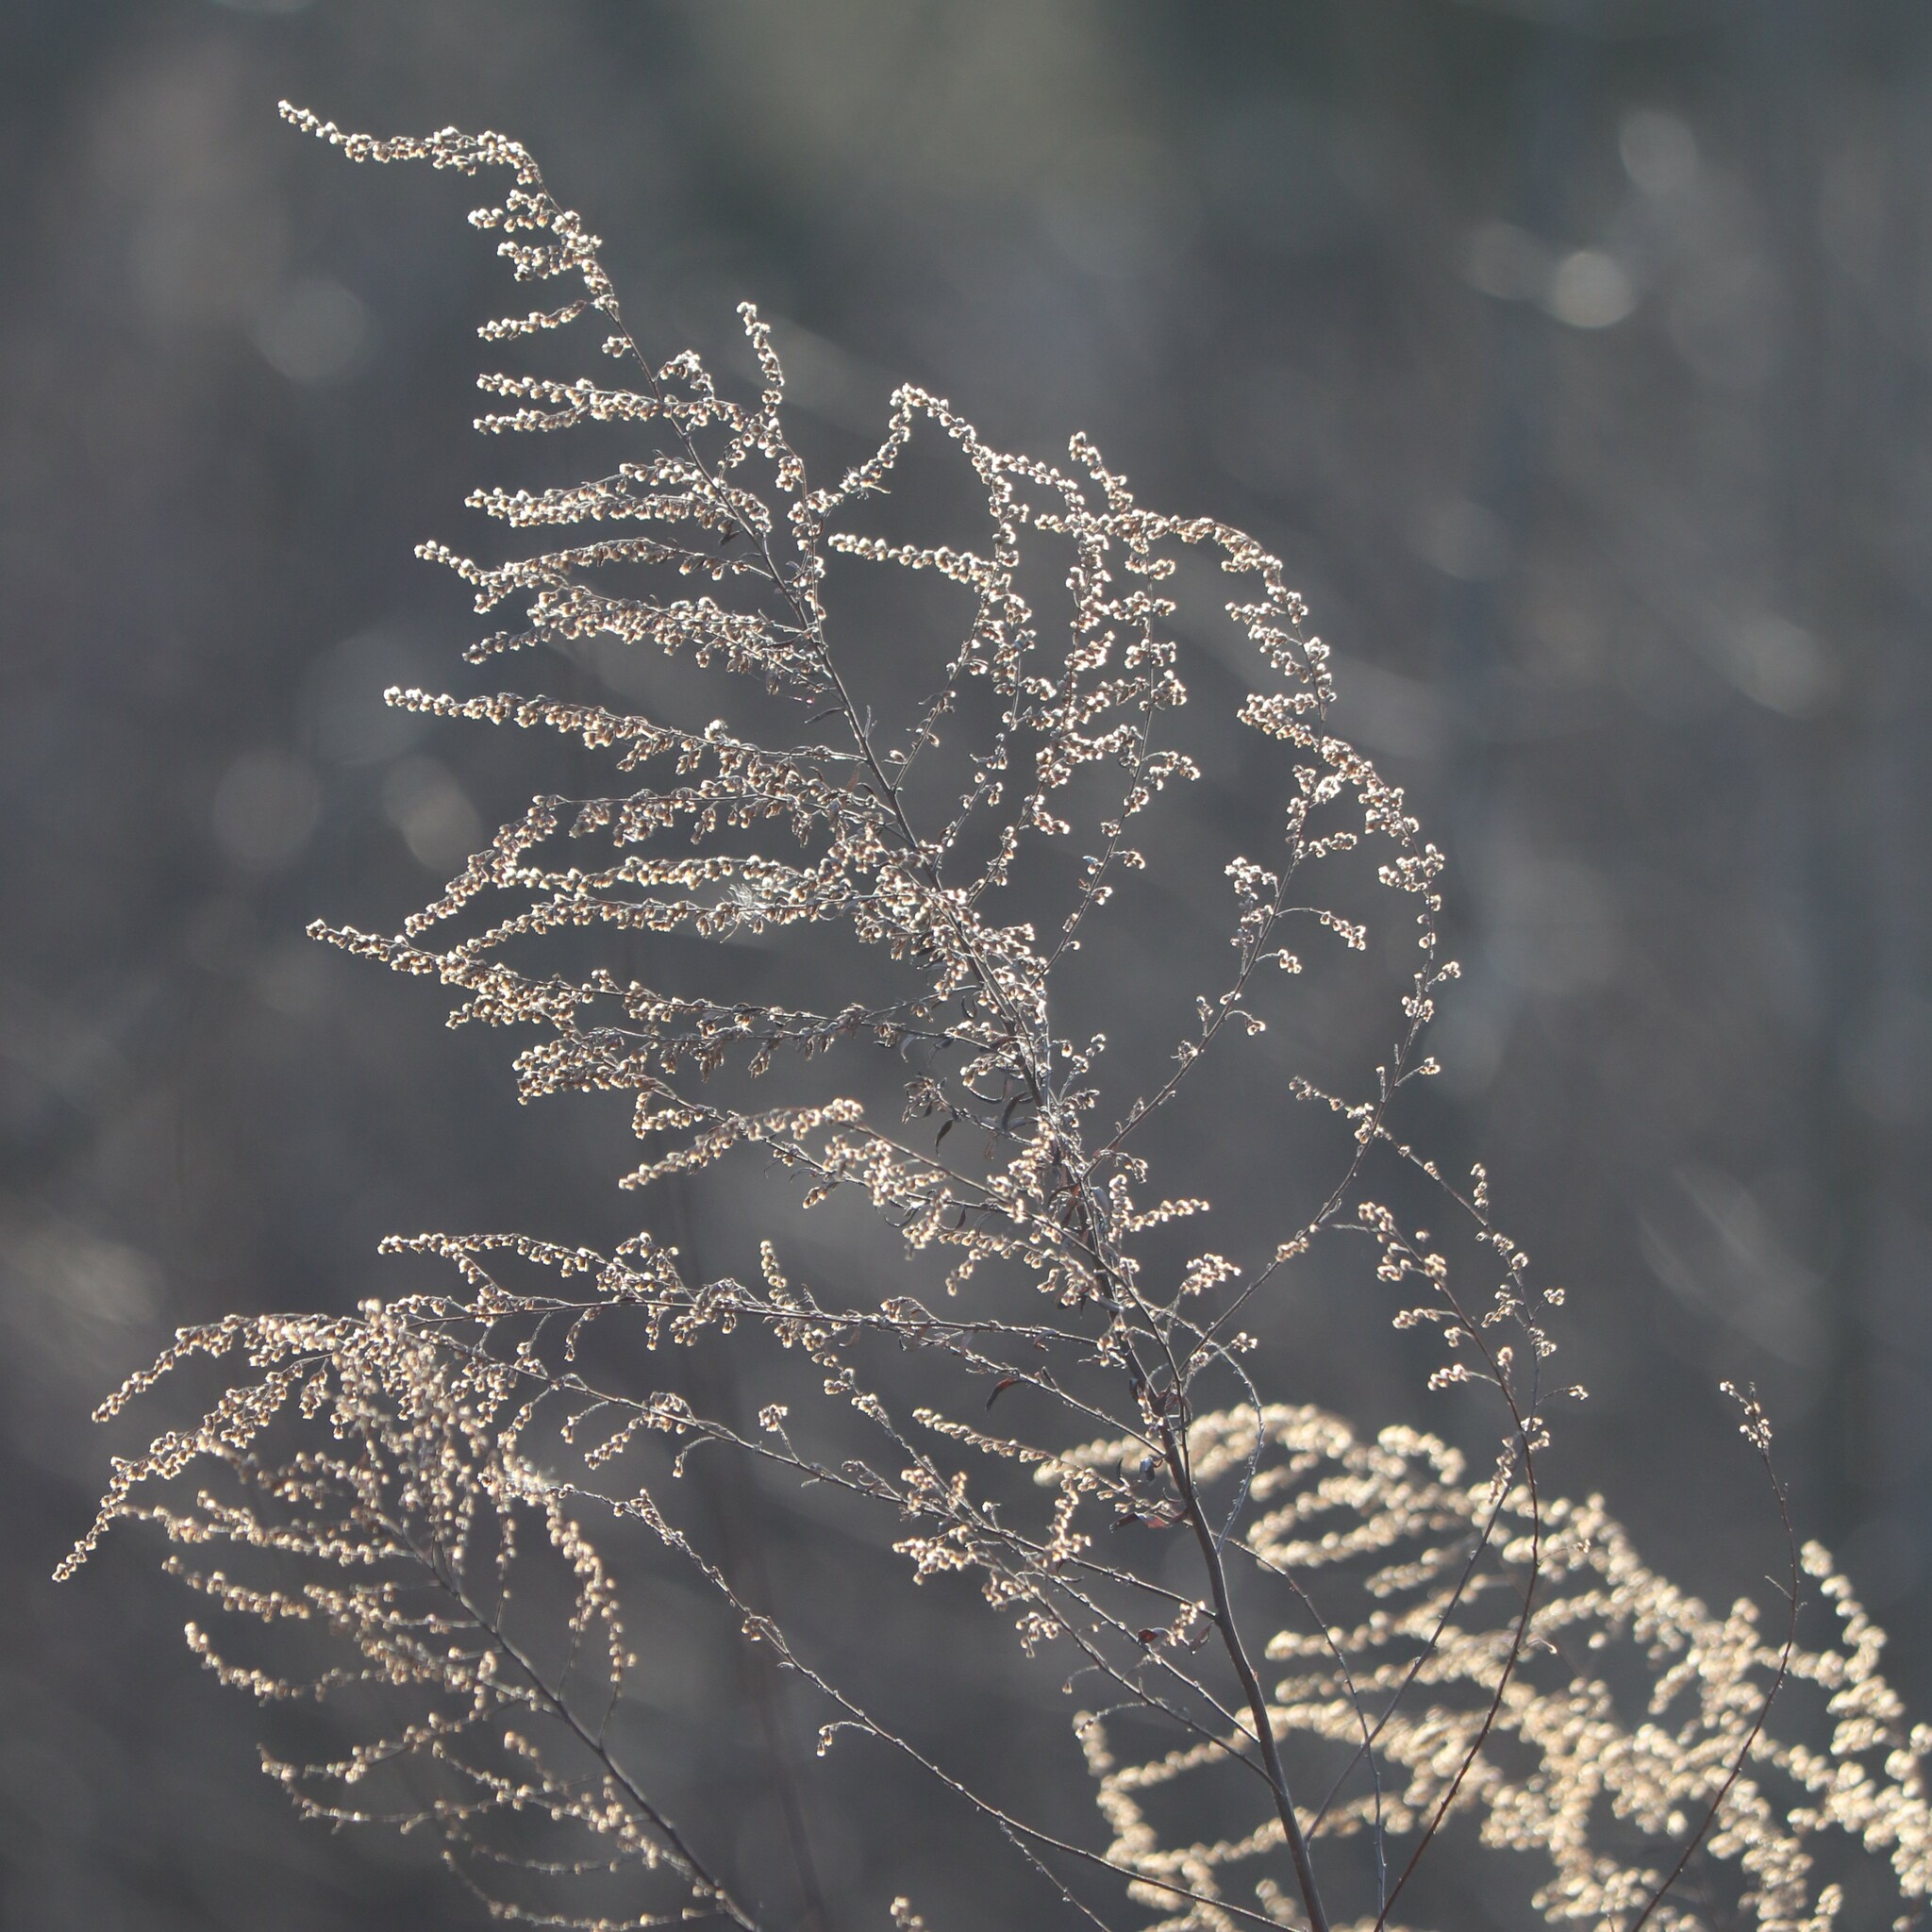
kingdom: Plantae
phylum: Tracheophyta
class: Magnoliopsida
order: Asterales
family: Asteraceae
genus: Artemisia
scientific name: Artemisia vulgaris
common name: Mugwort
